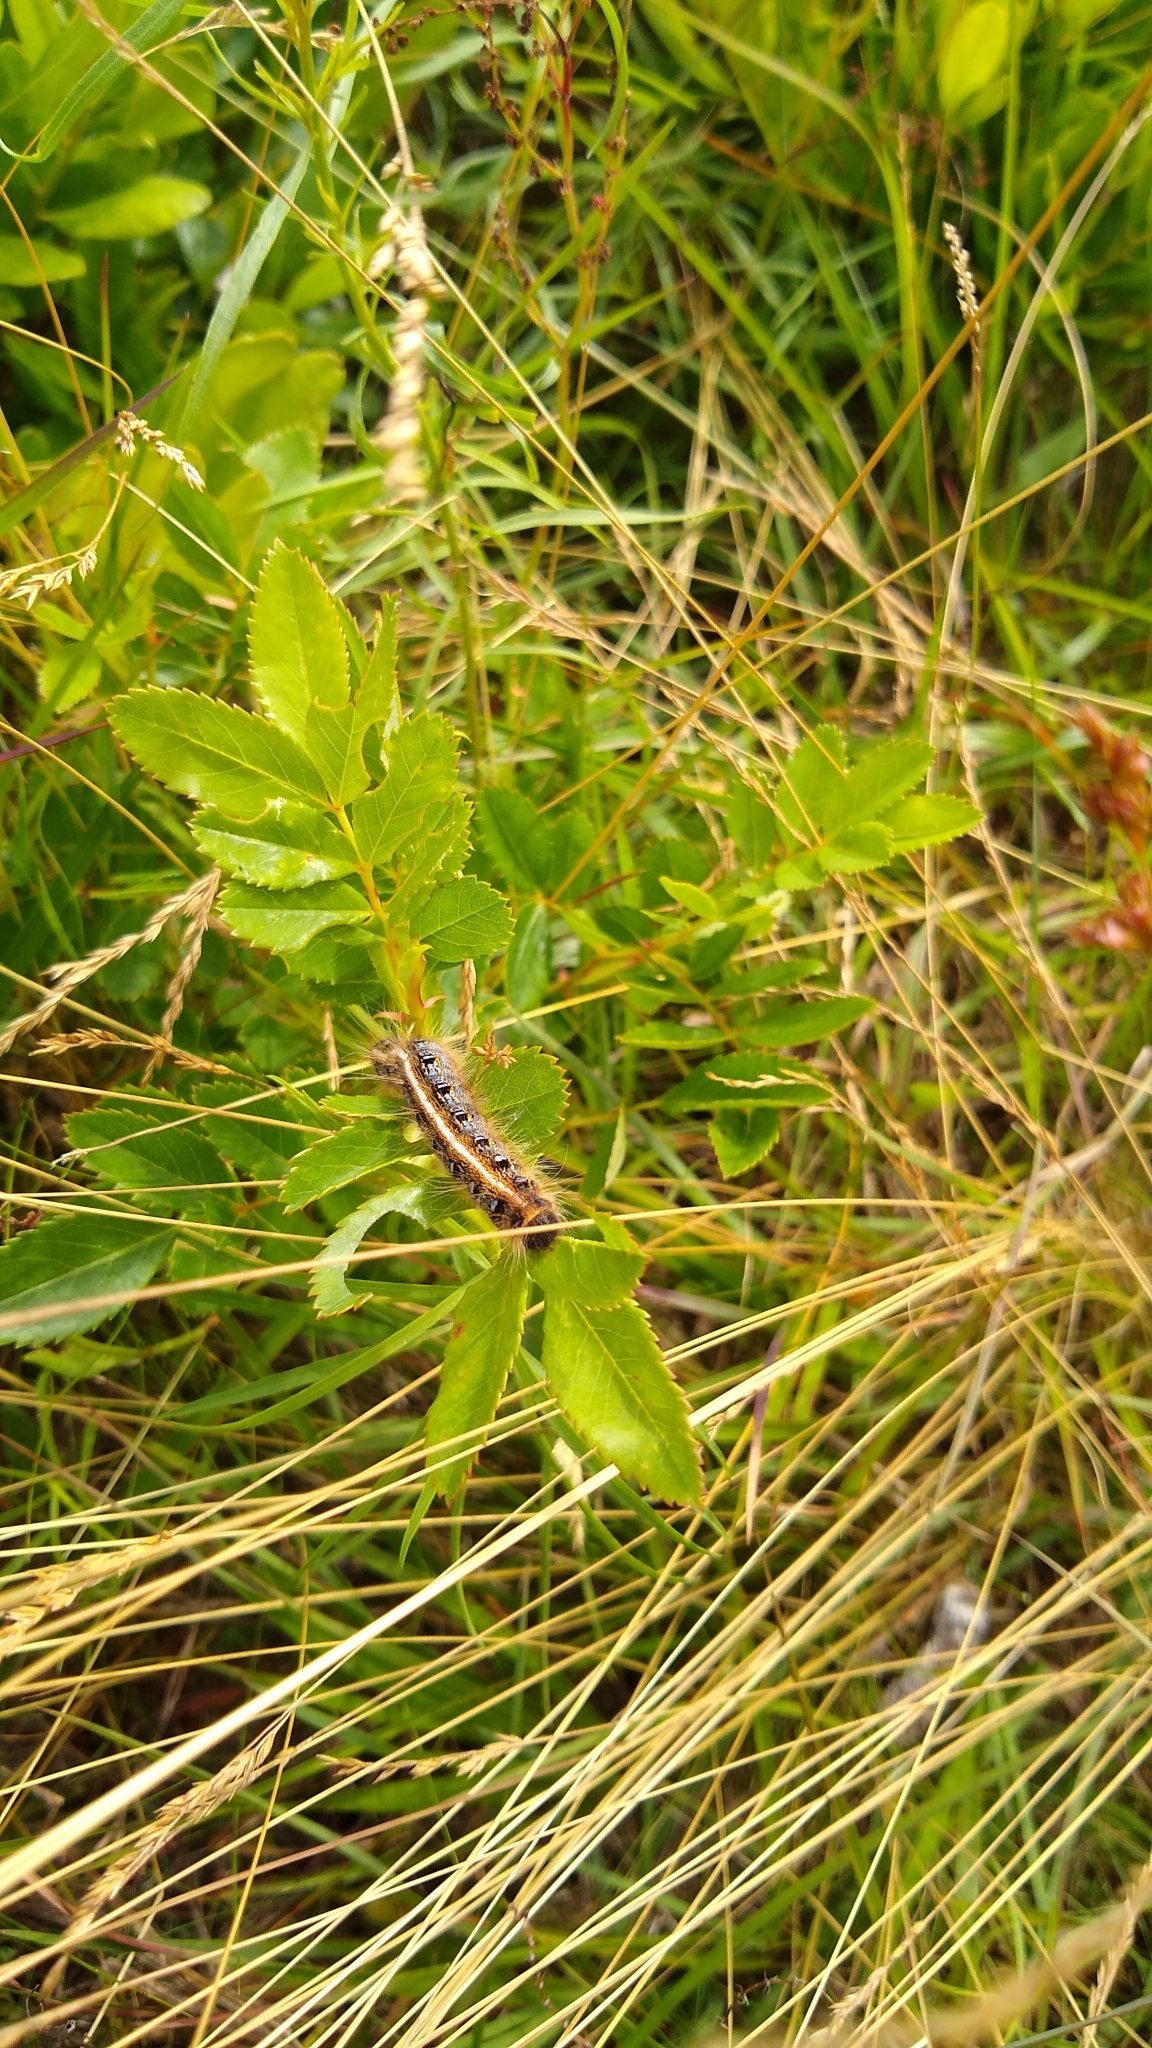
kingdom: Animalia
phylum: Arthropoda
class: Insecta
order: Lepidoptera
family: Lasiocampidae
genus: Malacosoma
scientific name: Malacosoma americana
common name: Eastern tent caterpillar moth
